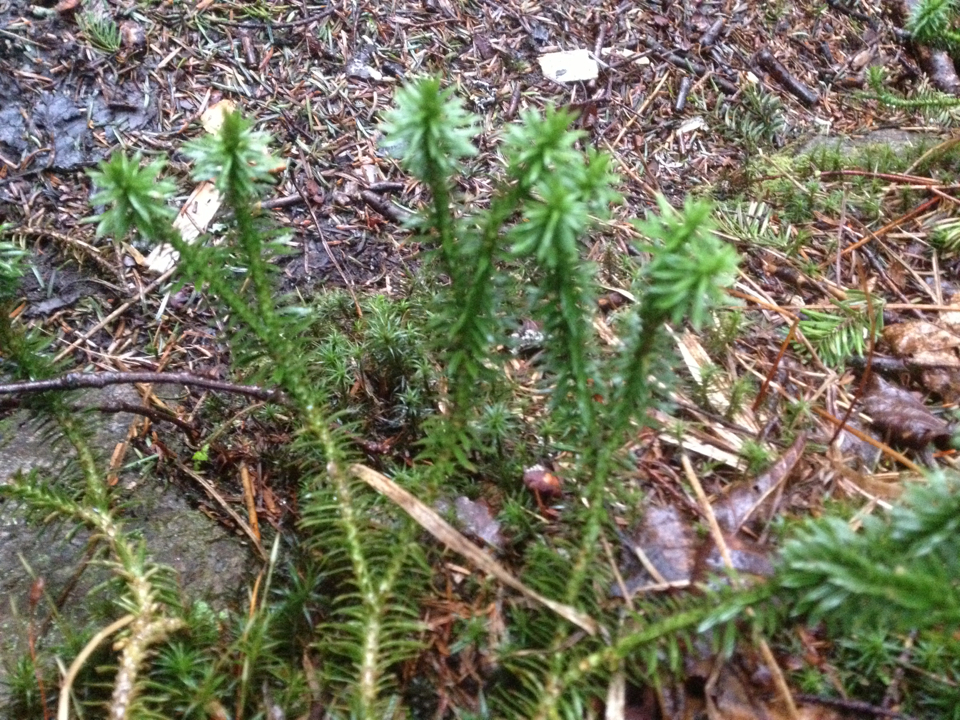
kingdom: Plantae
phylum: Tracheophyta
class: Lycopodiopsida
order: Lycopodiales
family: Lycopodiaceae
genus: Huperzia
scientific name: Huperzia lucidula
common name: Shining clubmoss
